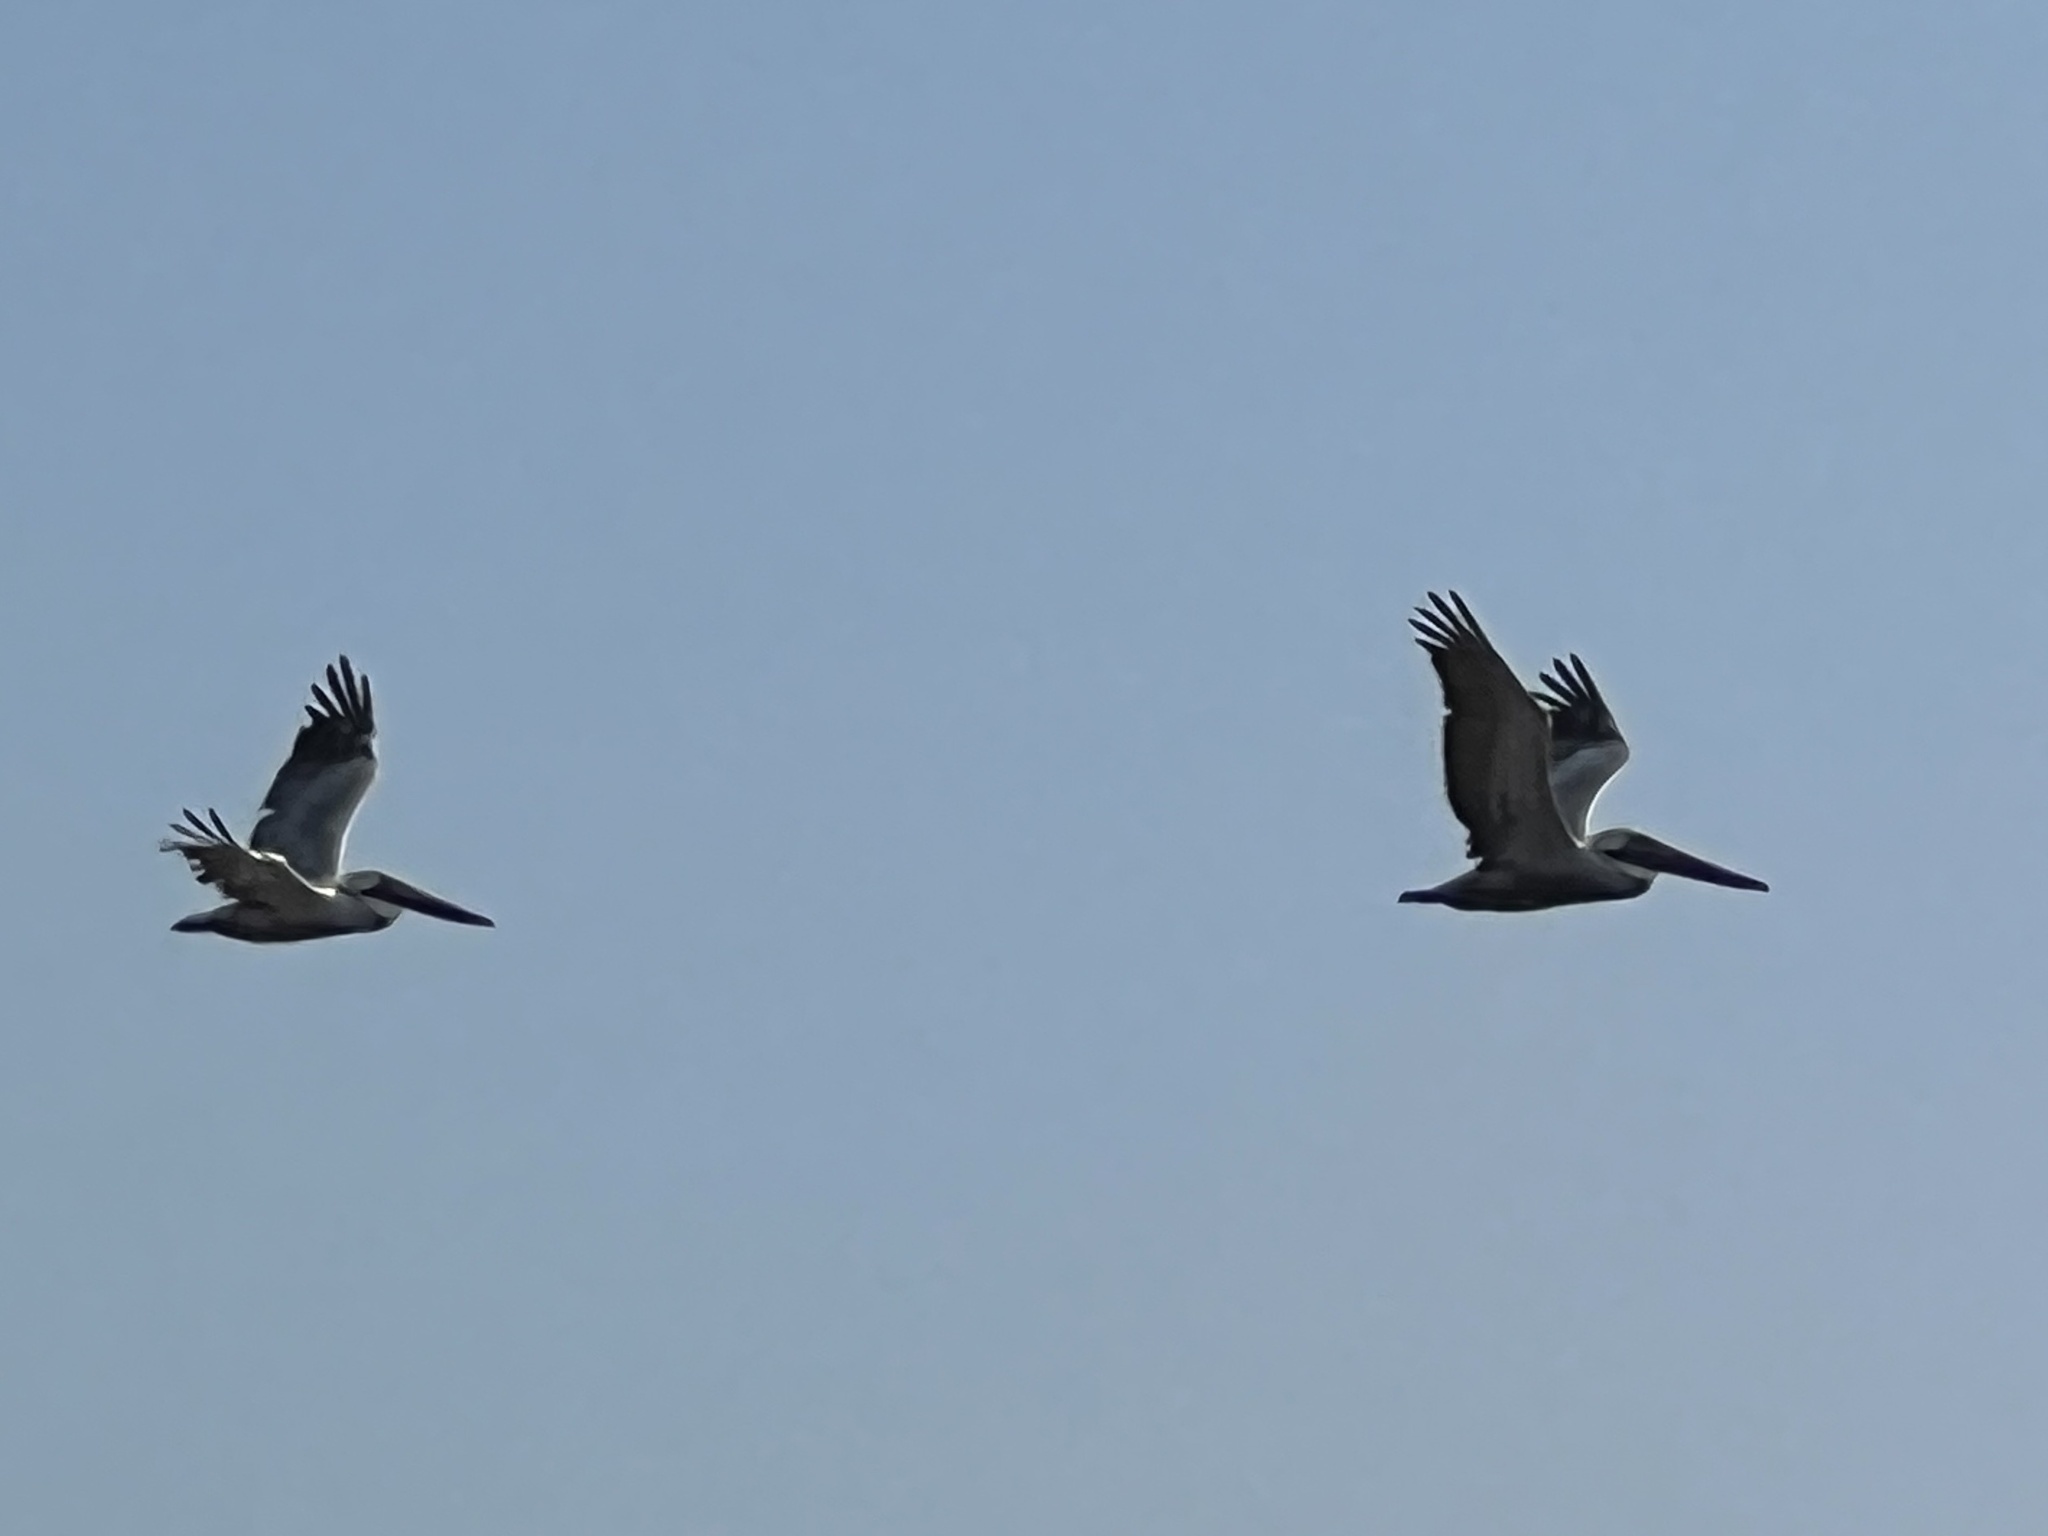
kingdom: Animalia
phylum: Chordata
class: Aves
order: Pelecaniformes
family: Pelecanidae
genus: Pelecanus
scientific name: Pelecanus occidentalis
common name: Brown pelican
